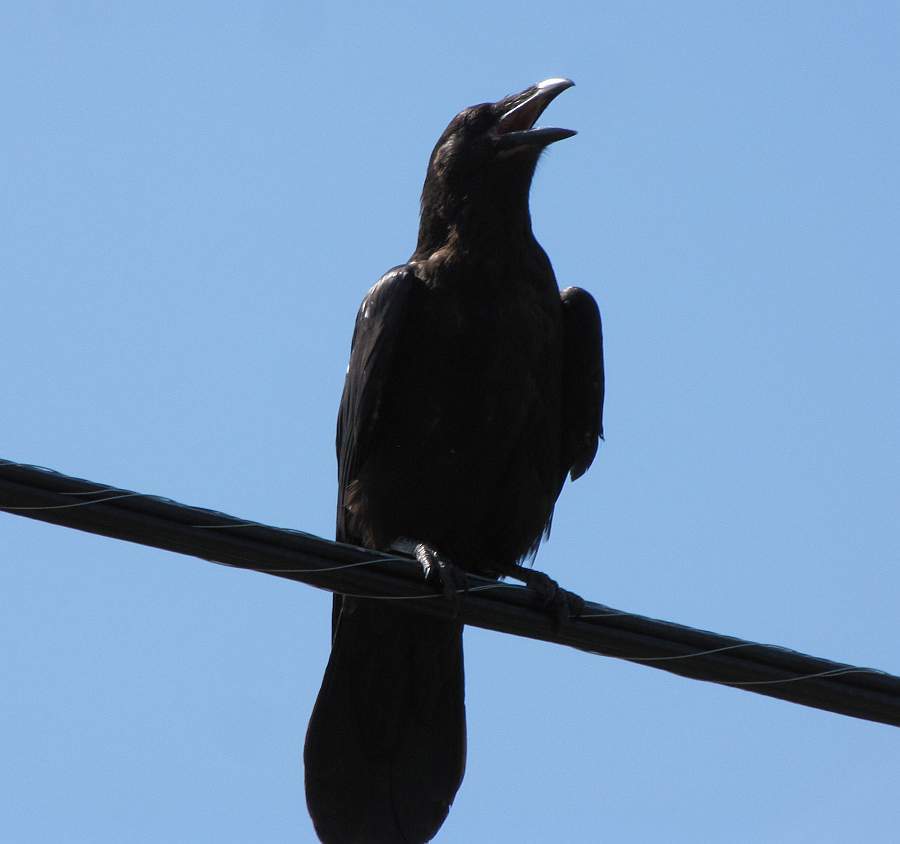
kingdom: Animalia
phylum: Chordata
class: Aves
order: Passeriformes
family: Corvidae
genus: Corvus
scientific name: Corvus corax
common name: Common raven
